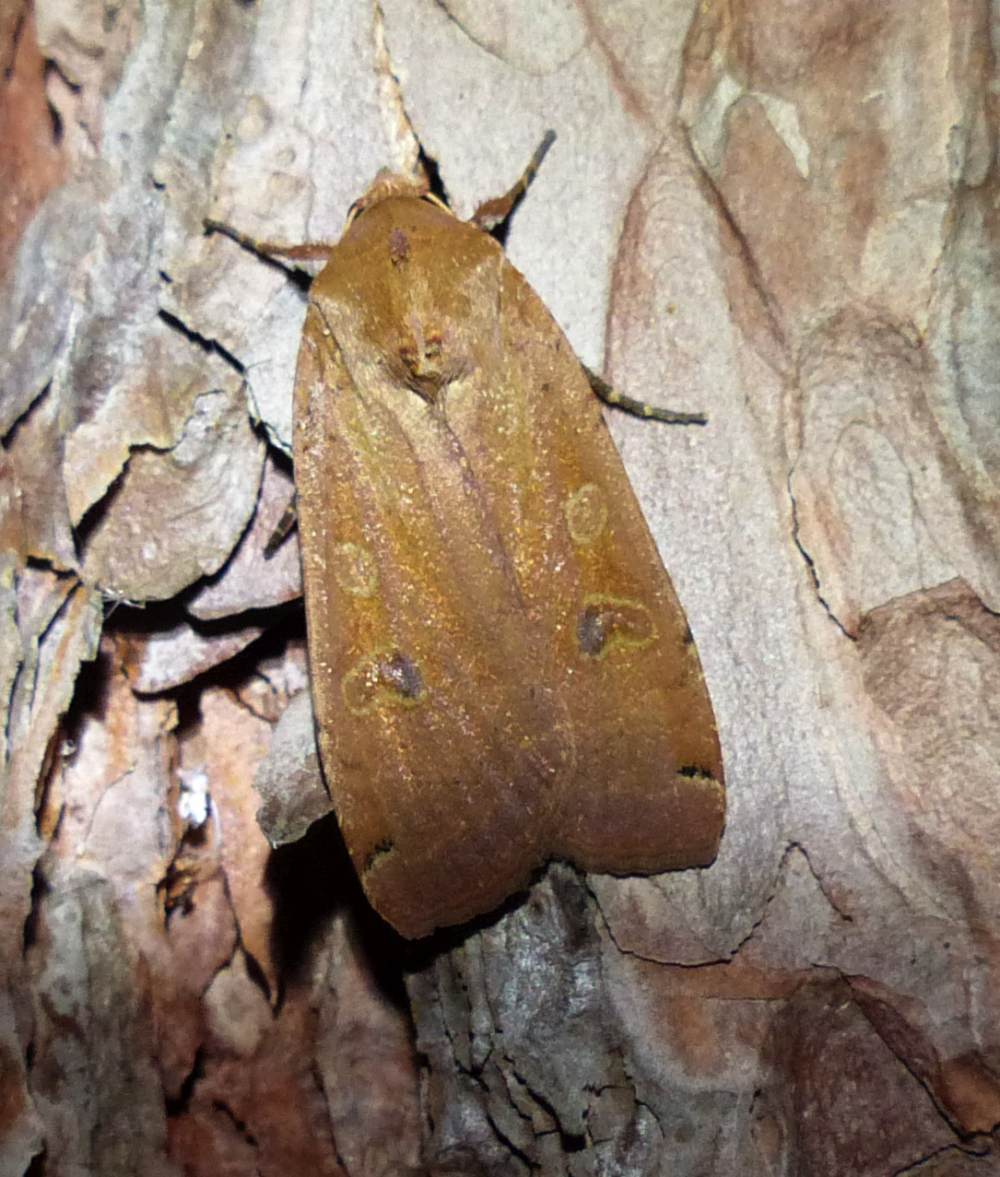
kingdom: Animalia
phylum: Arthropoda
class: Insecta
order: Lepidoptera
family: Noctuidae
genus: Noctua
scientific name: Noctua pronuba
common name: Large yellow underwing
